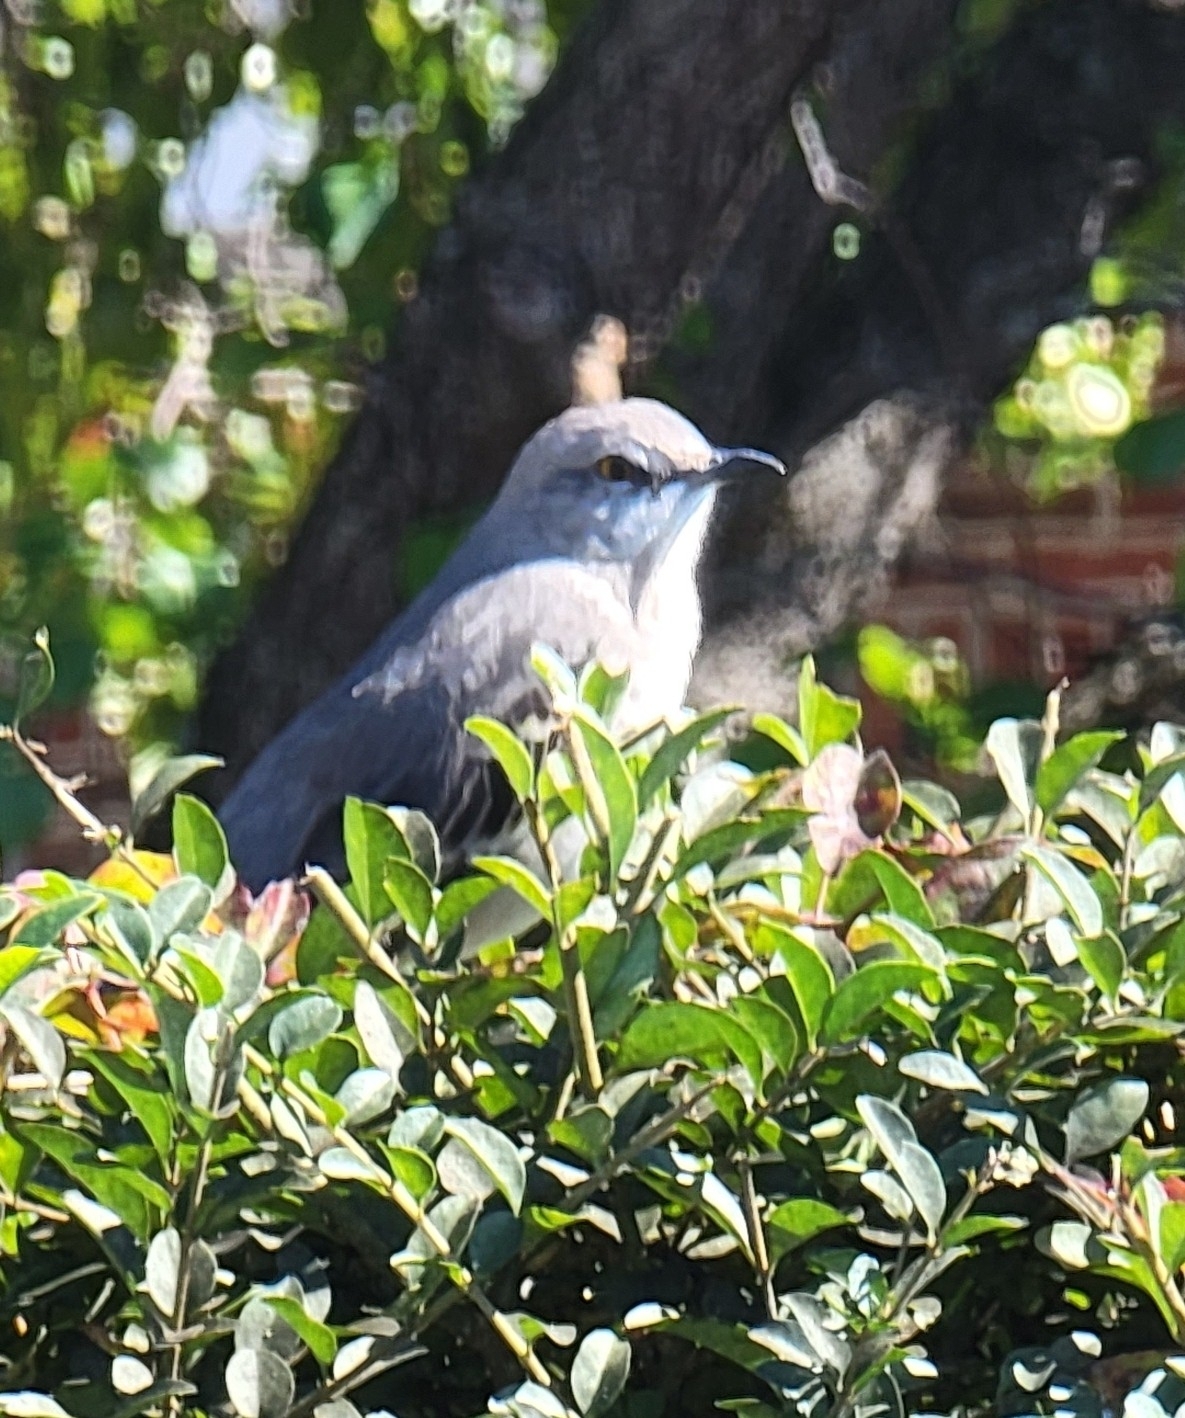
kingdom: Animalia
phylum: Chordata
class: Aves
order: Passeriformes
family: Mimidae
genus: Mimus
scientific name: Mimus polyglottos
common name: Northern mockingbird
